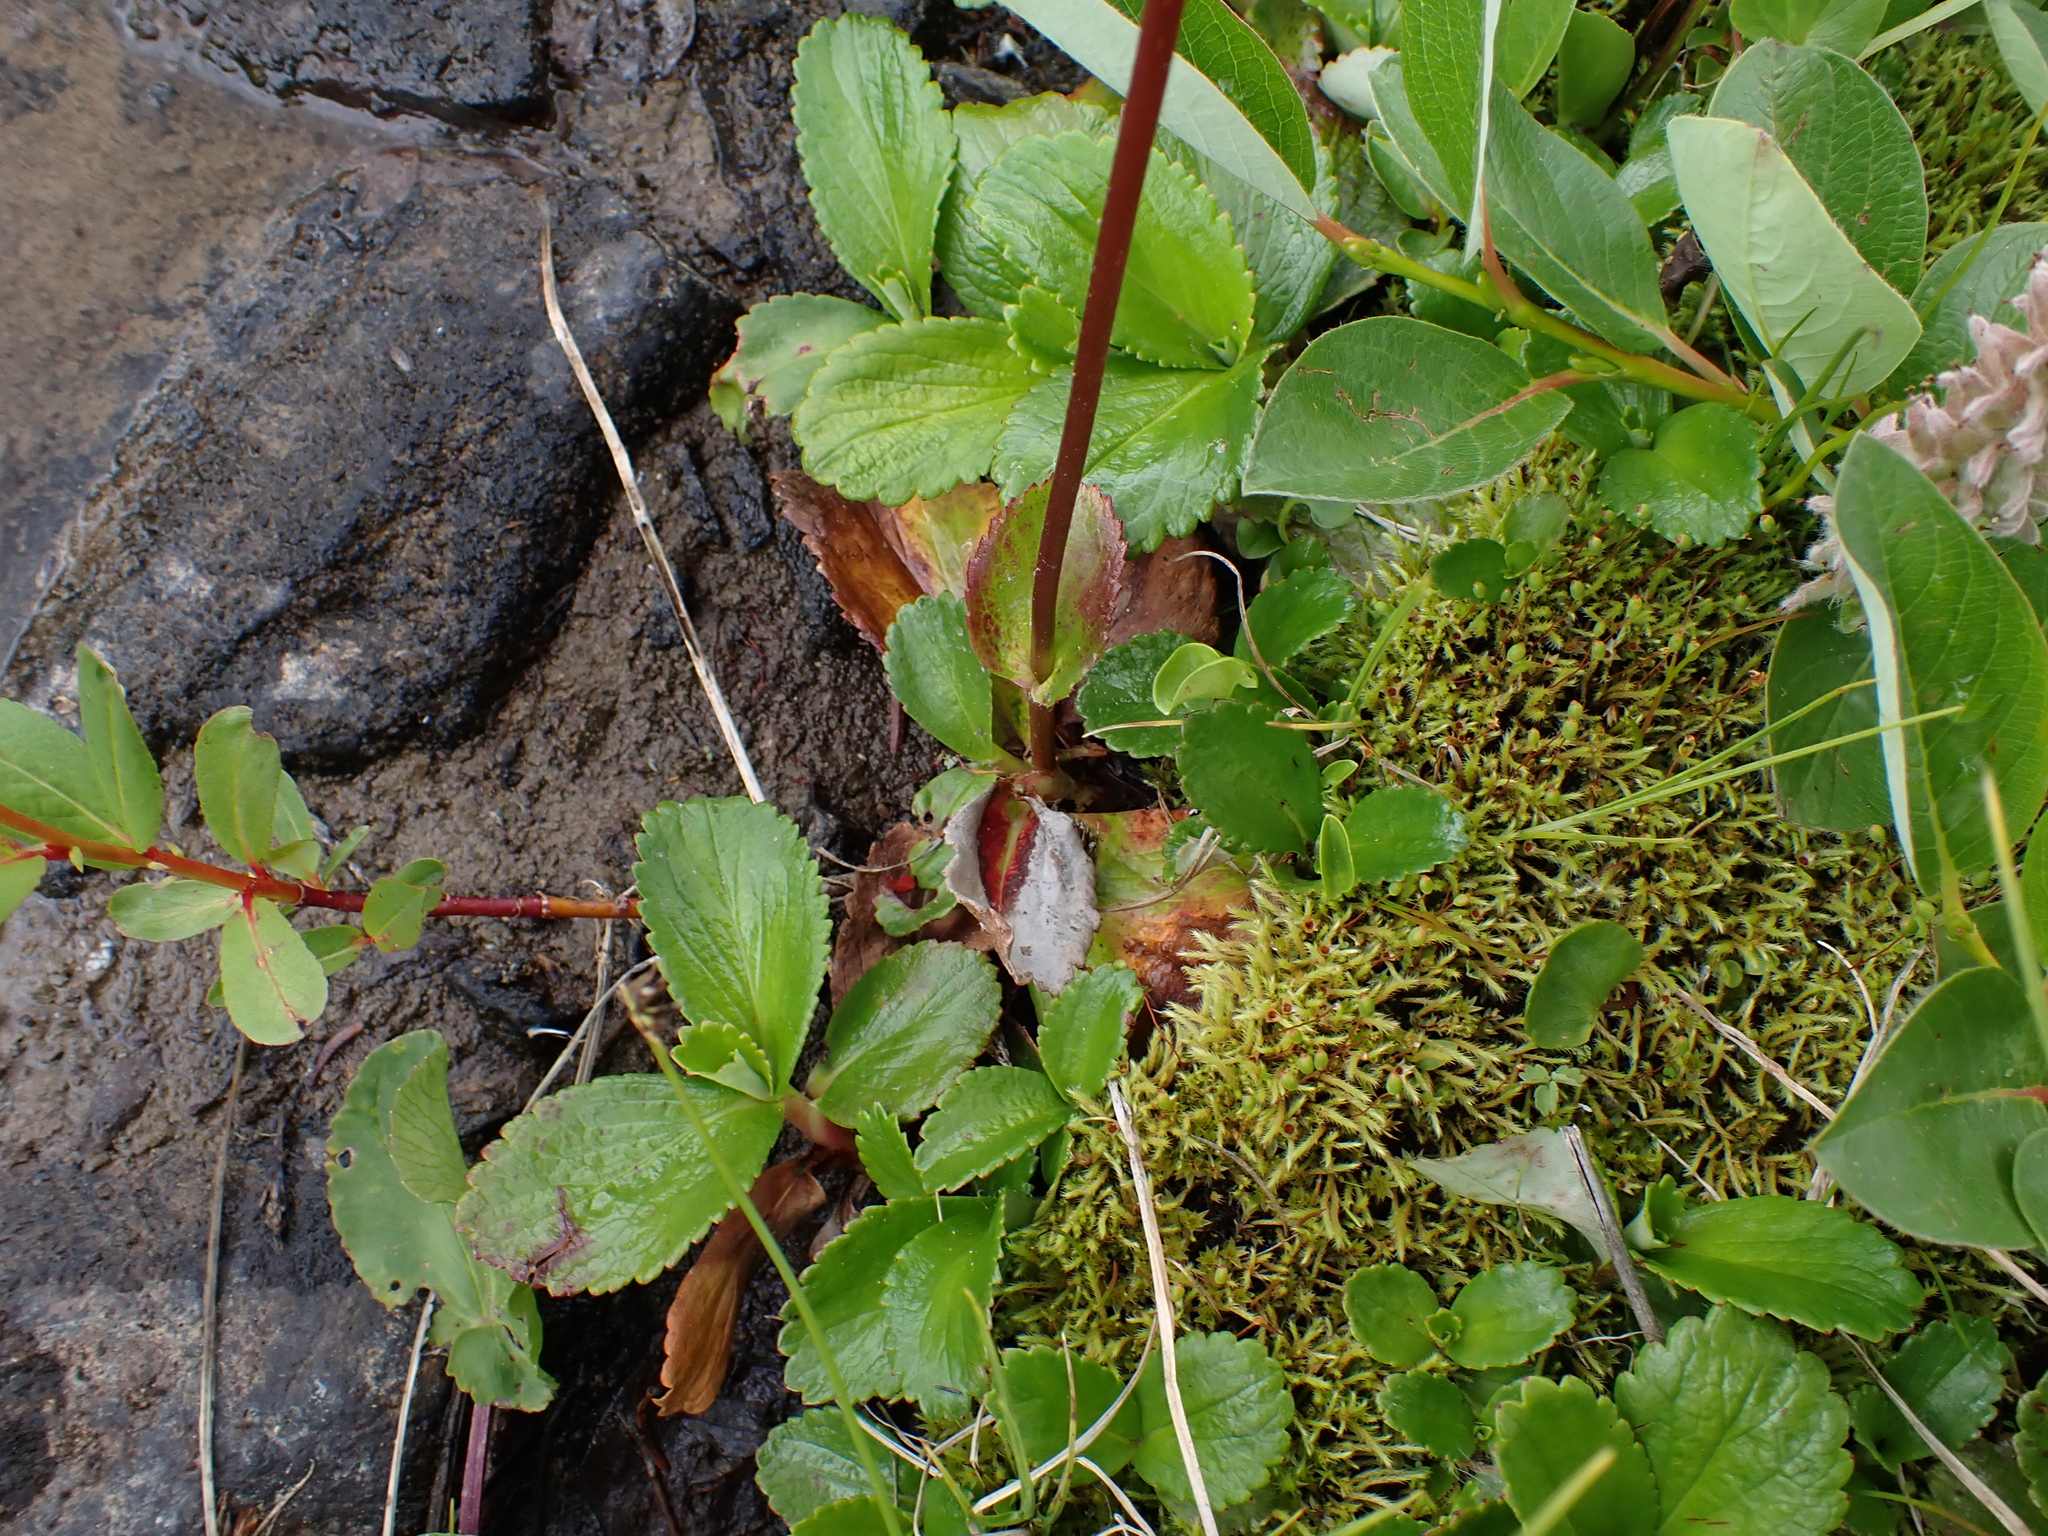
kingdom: Plantae
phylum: Tracheophyta
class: Magnoliopsida
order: Saxifragales
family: Saxifragaceae
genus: Leptarrhena
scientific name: Leptarrhena pyrolifolia
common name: Leatherleaf-saxifrage
